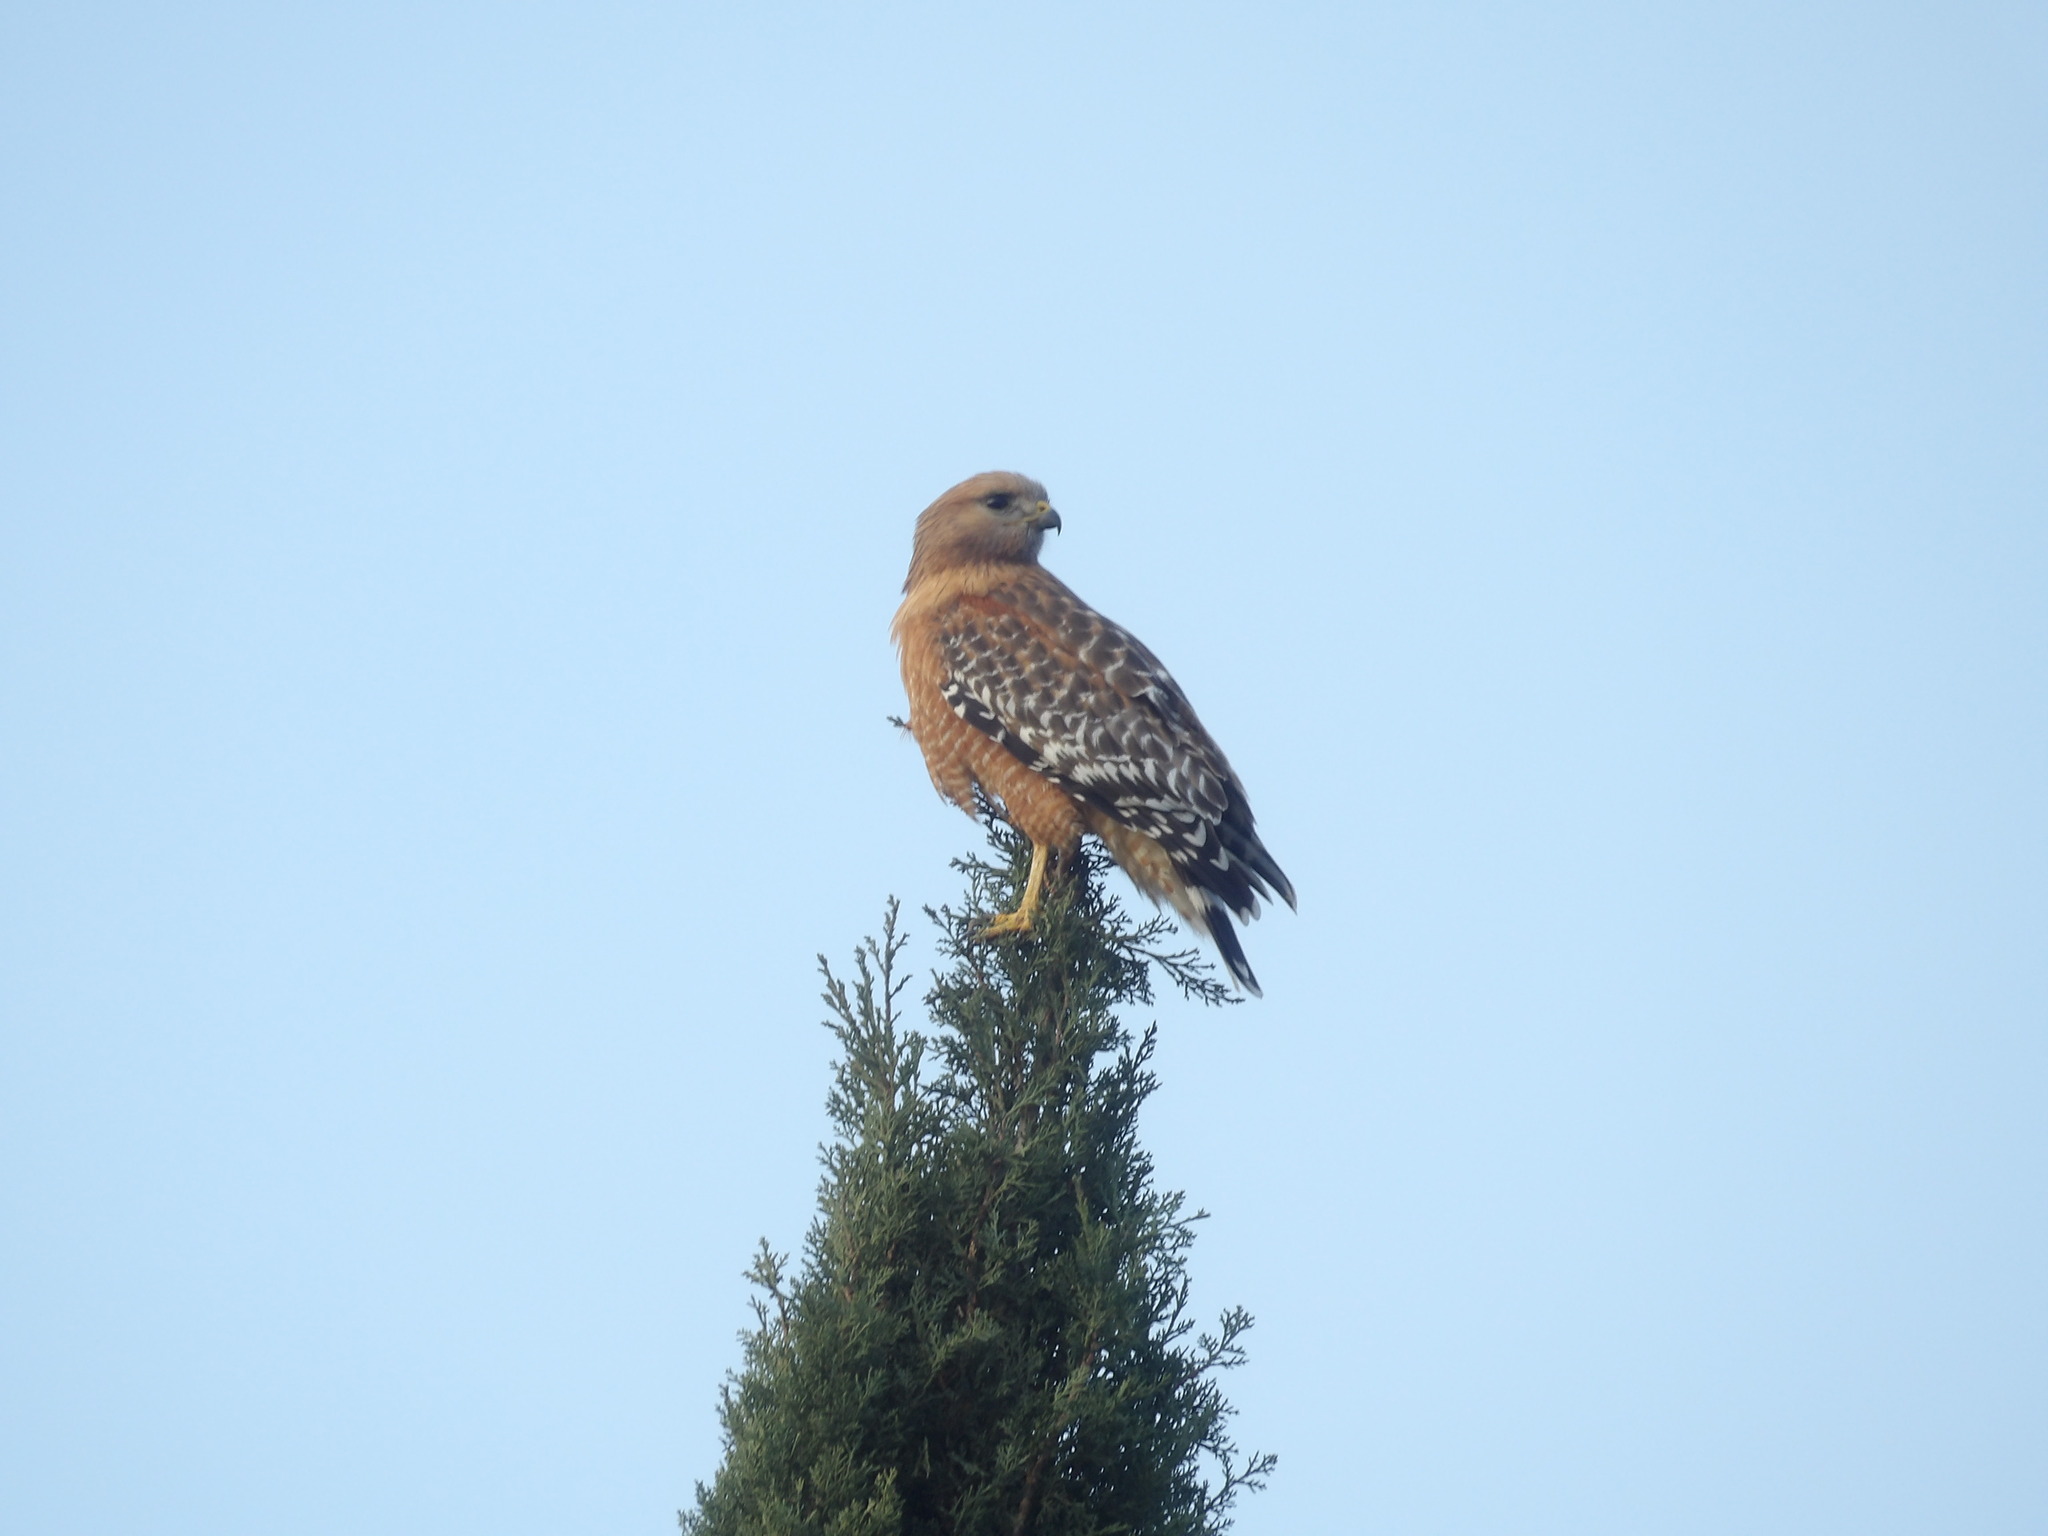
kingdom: Animalia
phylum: Chordata
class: Aves
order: Accipitriformes
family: Accipitridae
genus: Buteo
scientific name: Buteo lineatus
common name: Red-shouldered hawk
